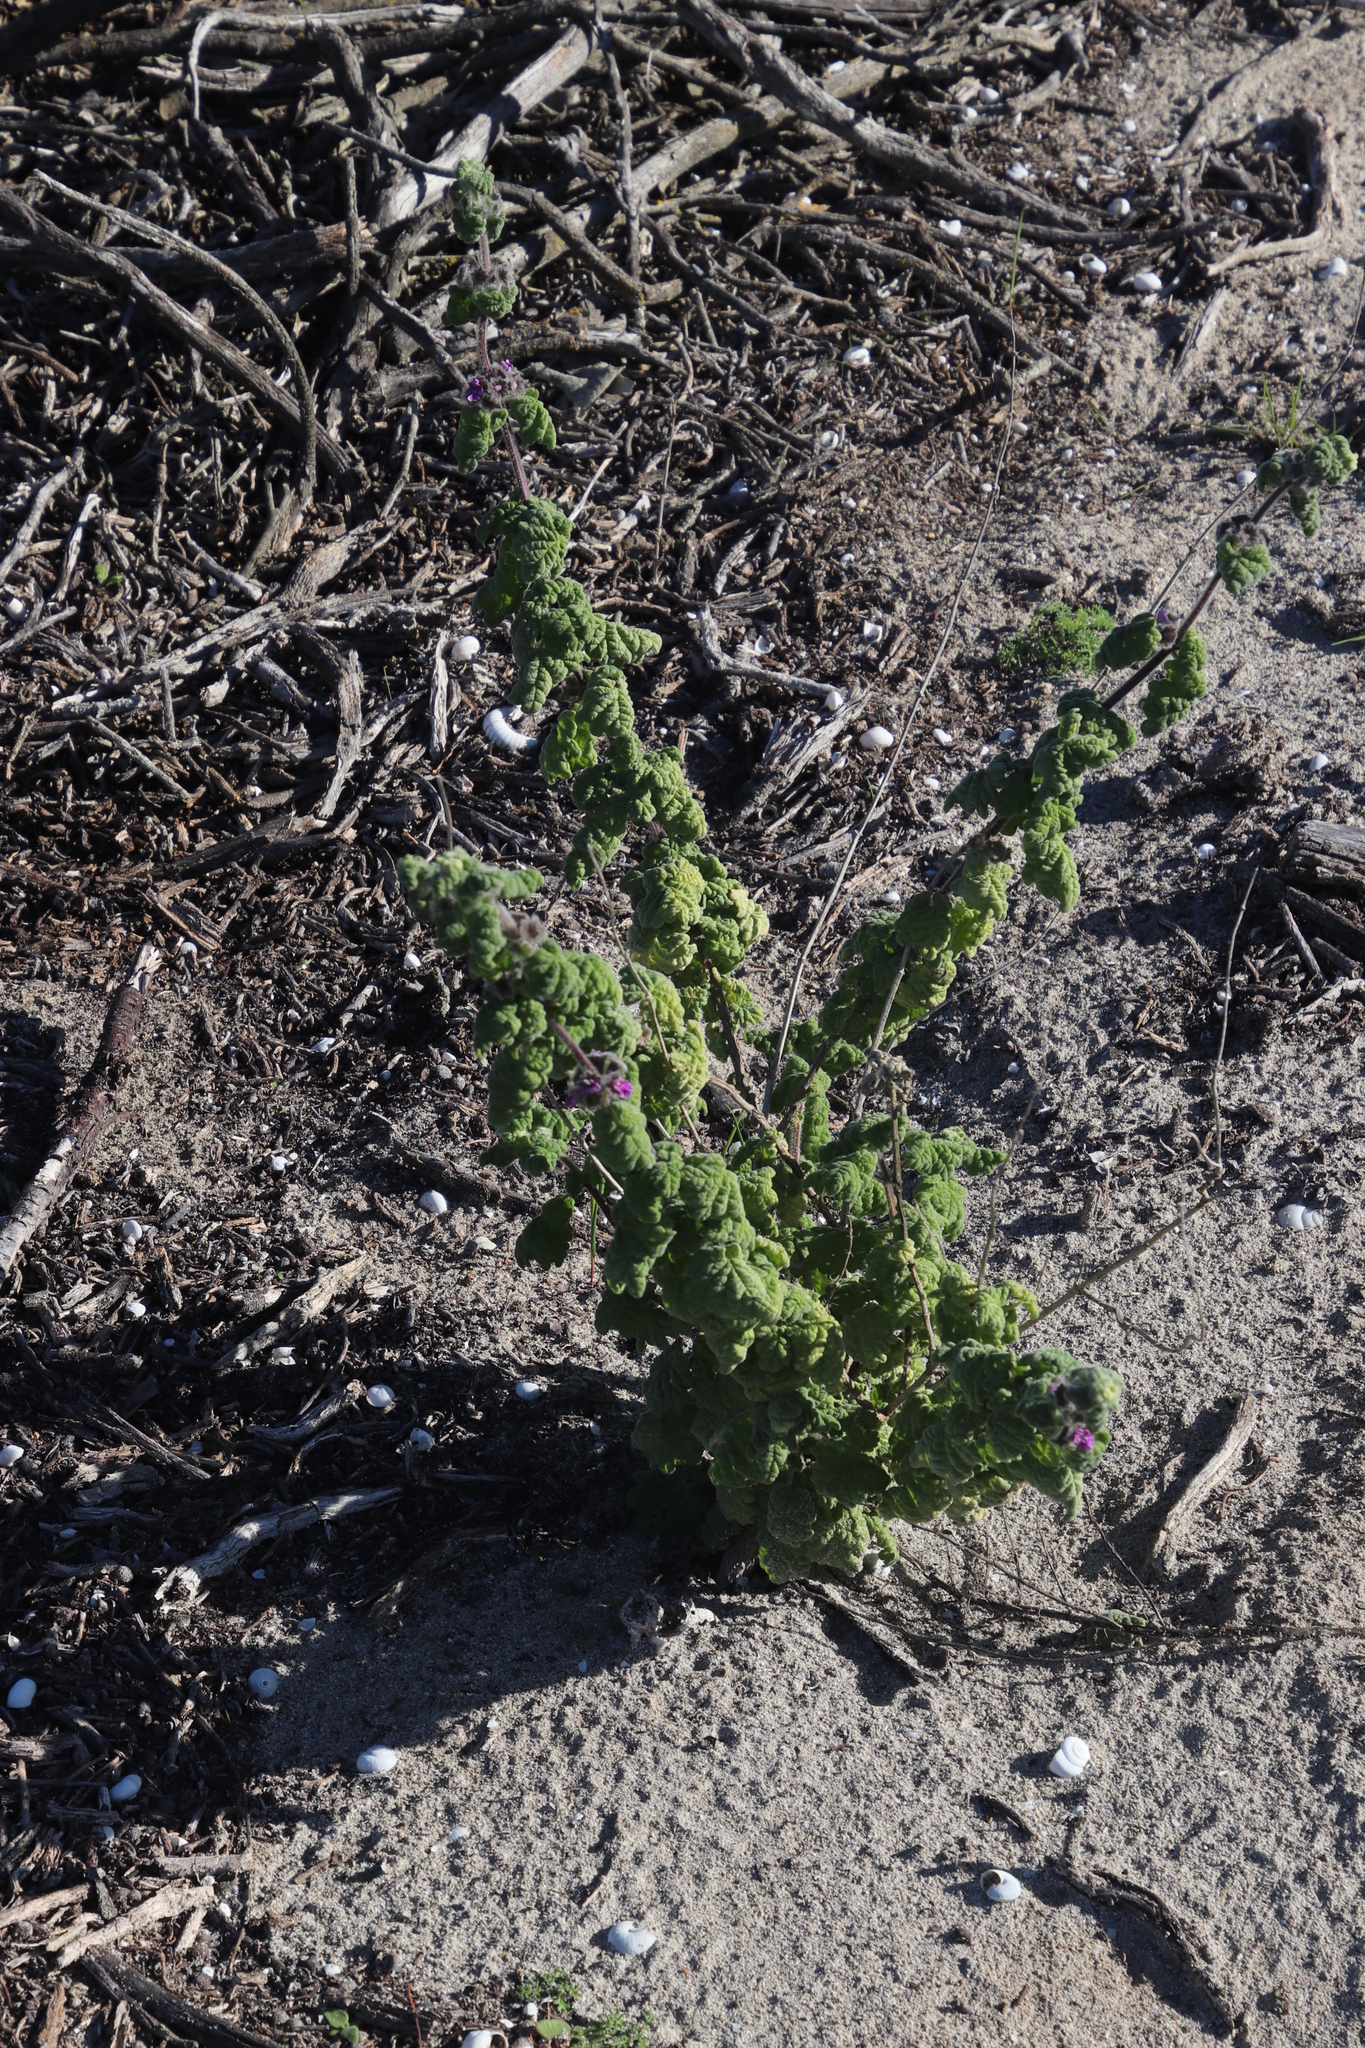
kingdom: Plantae
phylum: Tracheophyta
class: Magnoliopsida
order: Lamiales
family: Lamiaceae
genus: Pseudodictamnus
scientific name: Pseudodictamnus africanus
